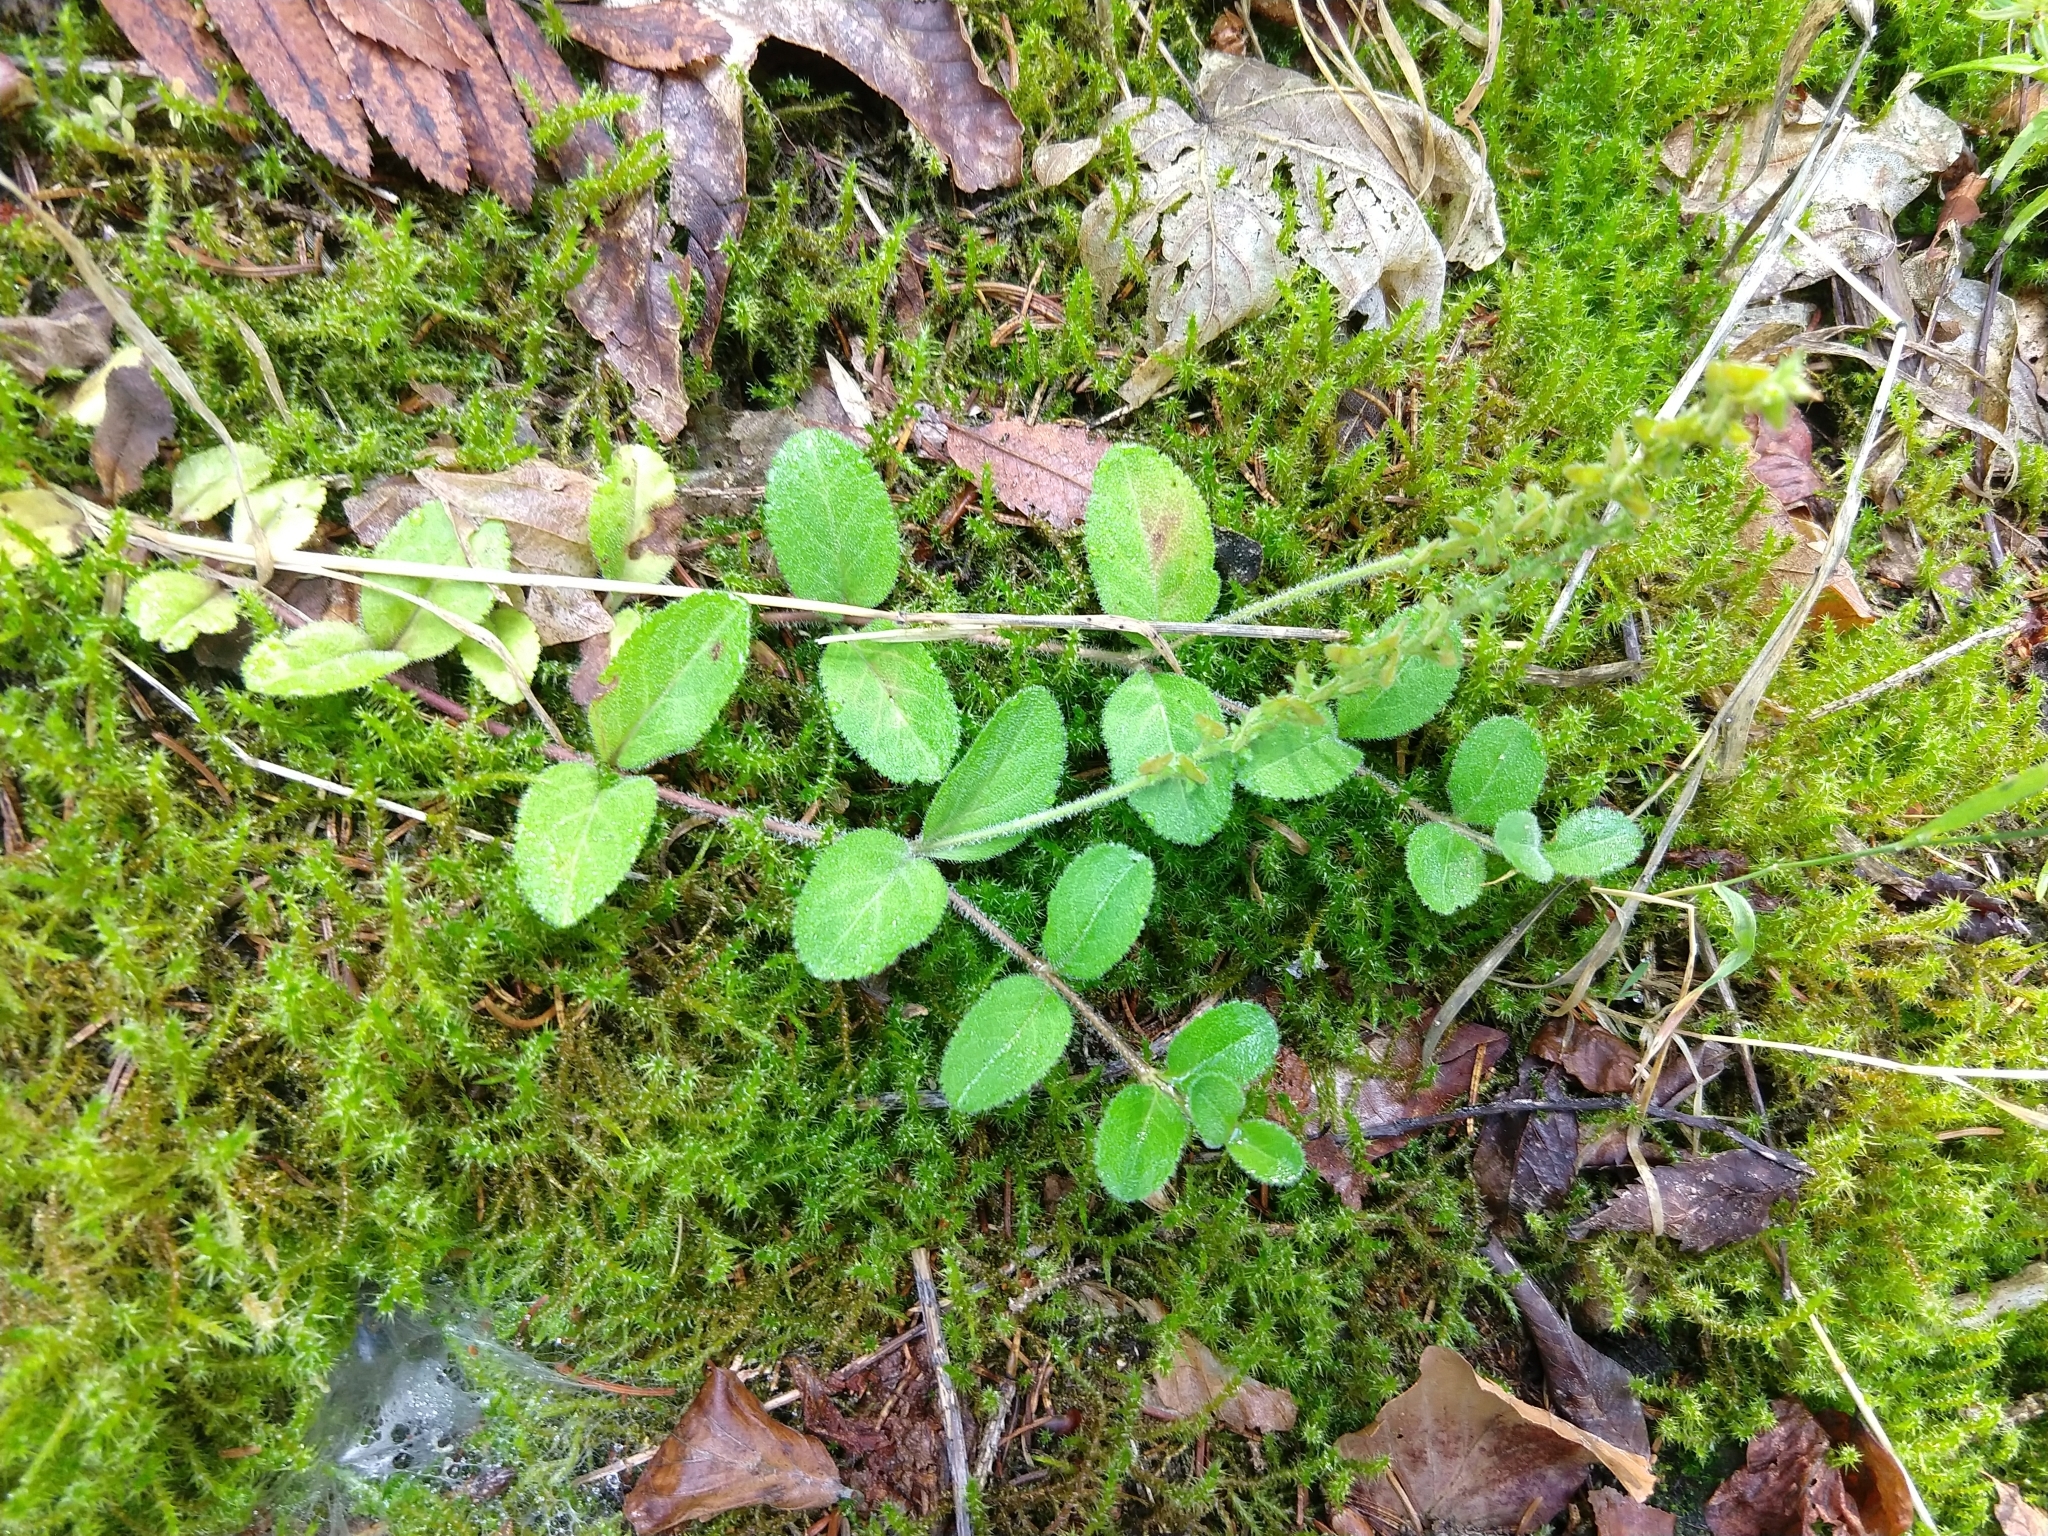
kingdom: Plantae
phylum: Tracheophyta
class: Magnoliopsida
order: Lamiales
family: Plantaginaceae
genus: Veronica
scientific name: Veronica officinalis
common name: Common speedwell
